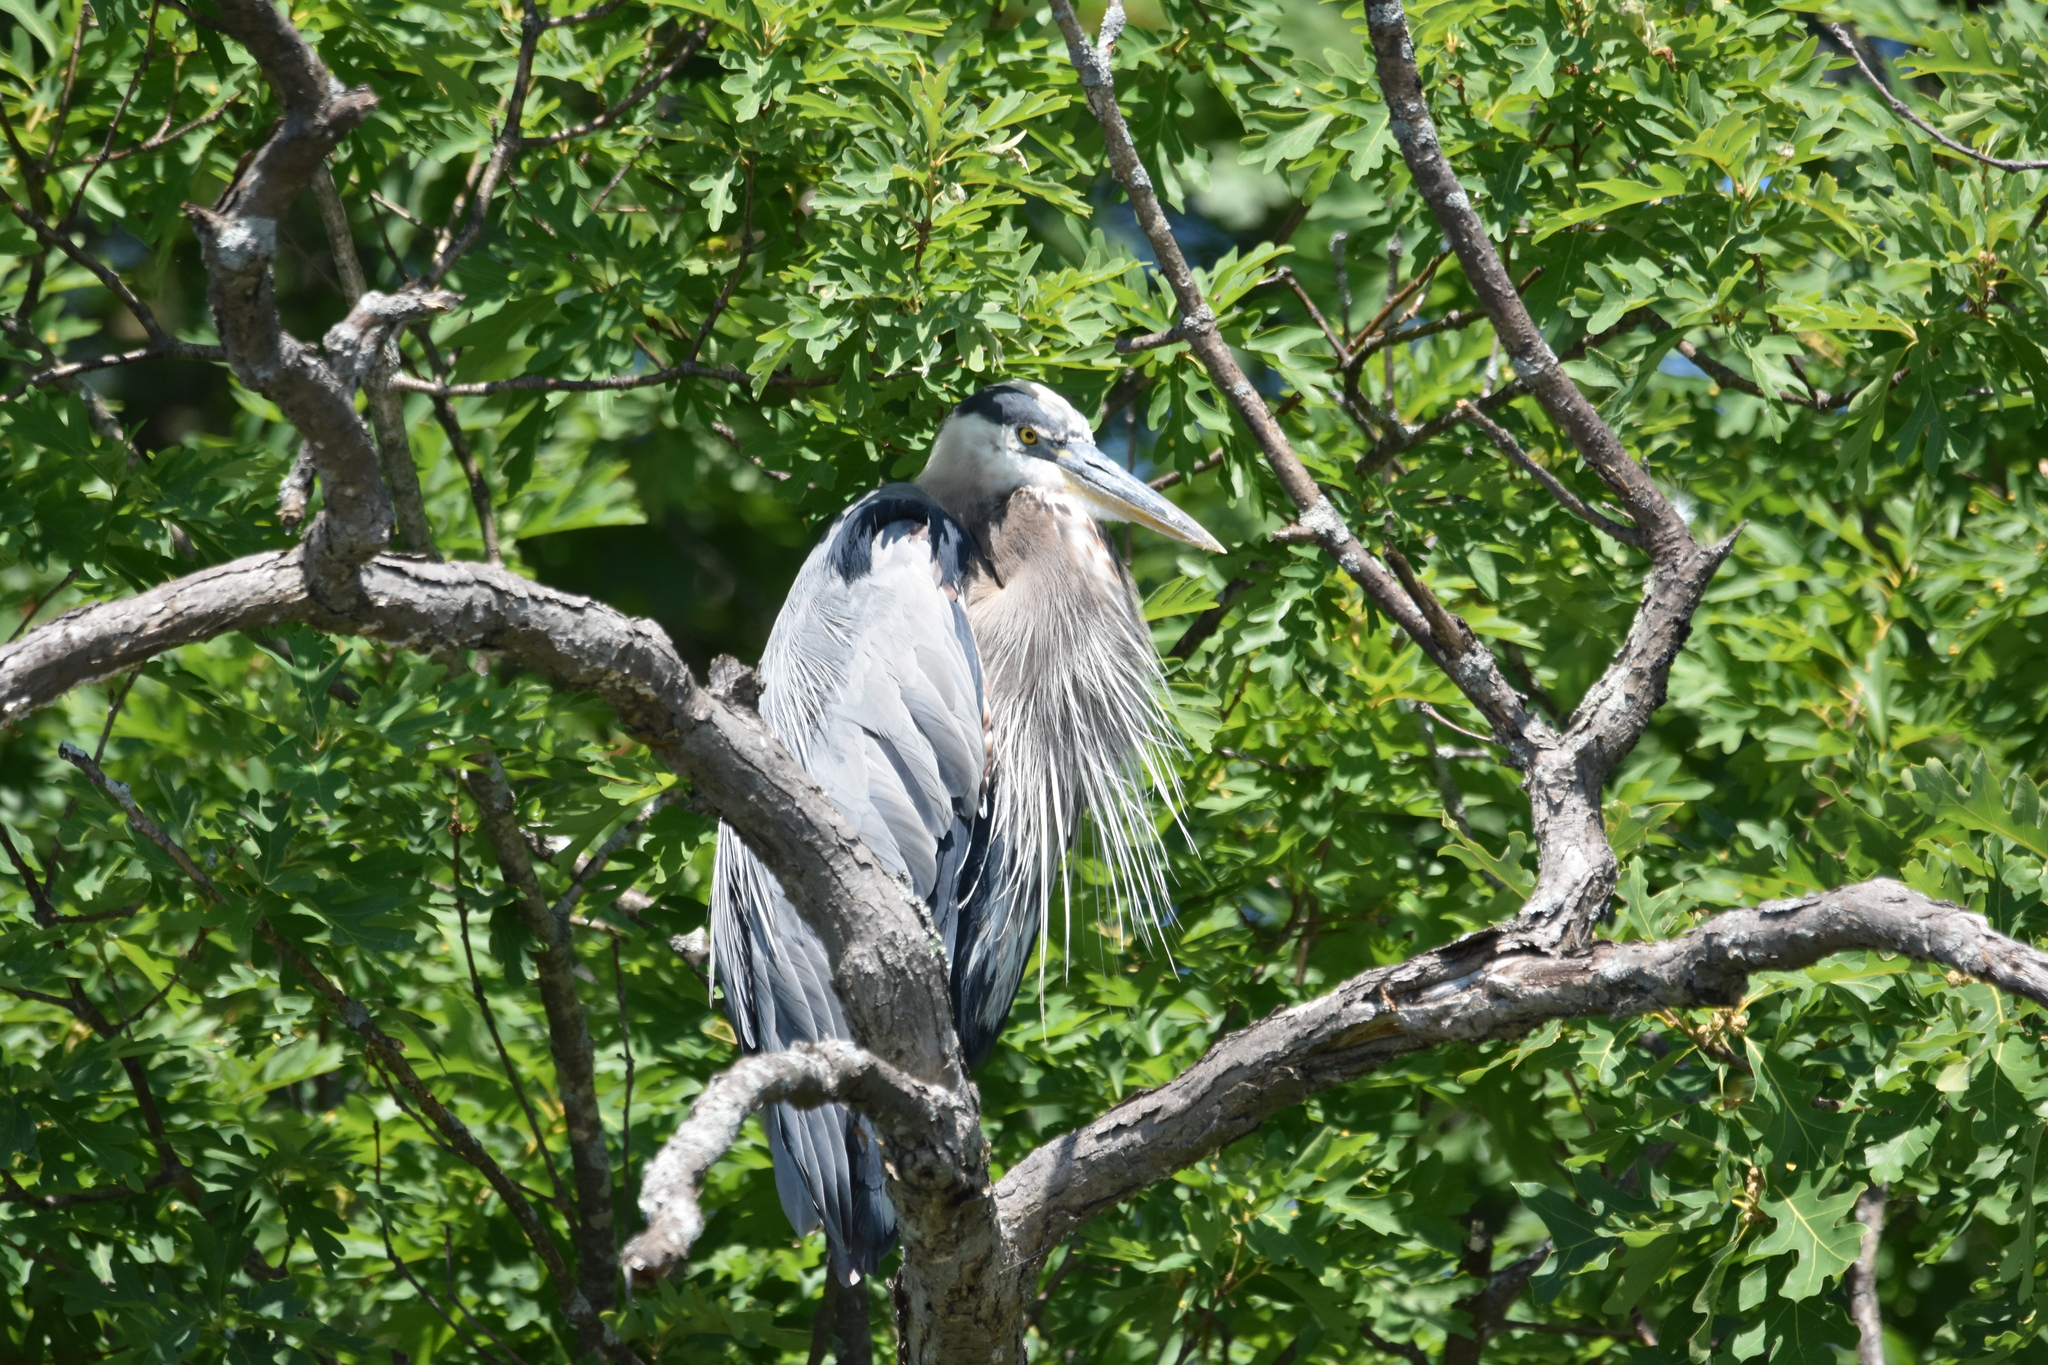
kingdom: Animalia
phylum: Chordata
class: Aves
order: Pelecaniformes
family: Ardeidae
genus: Ardea
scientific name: Ardea herodias
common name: Great blue heron
